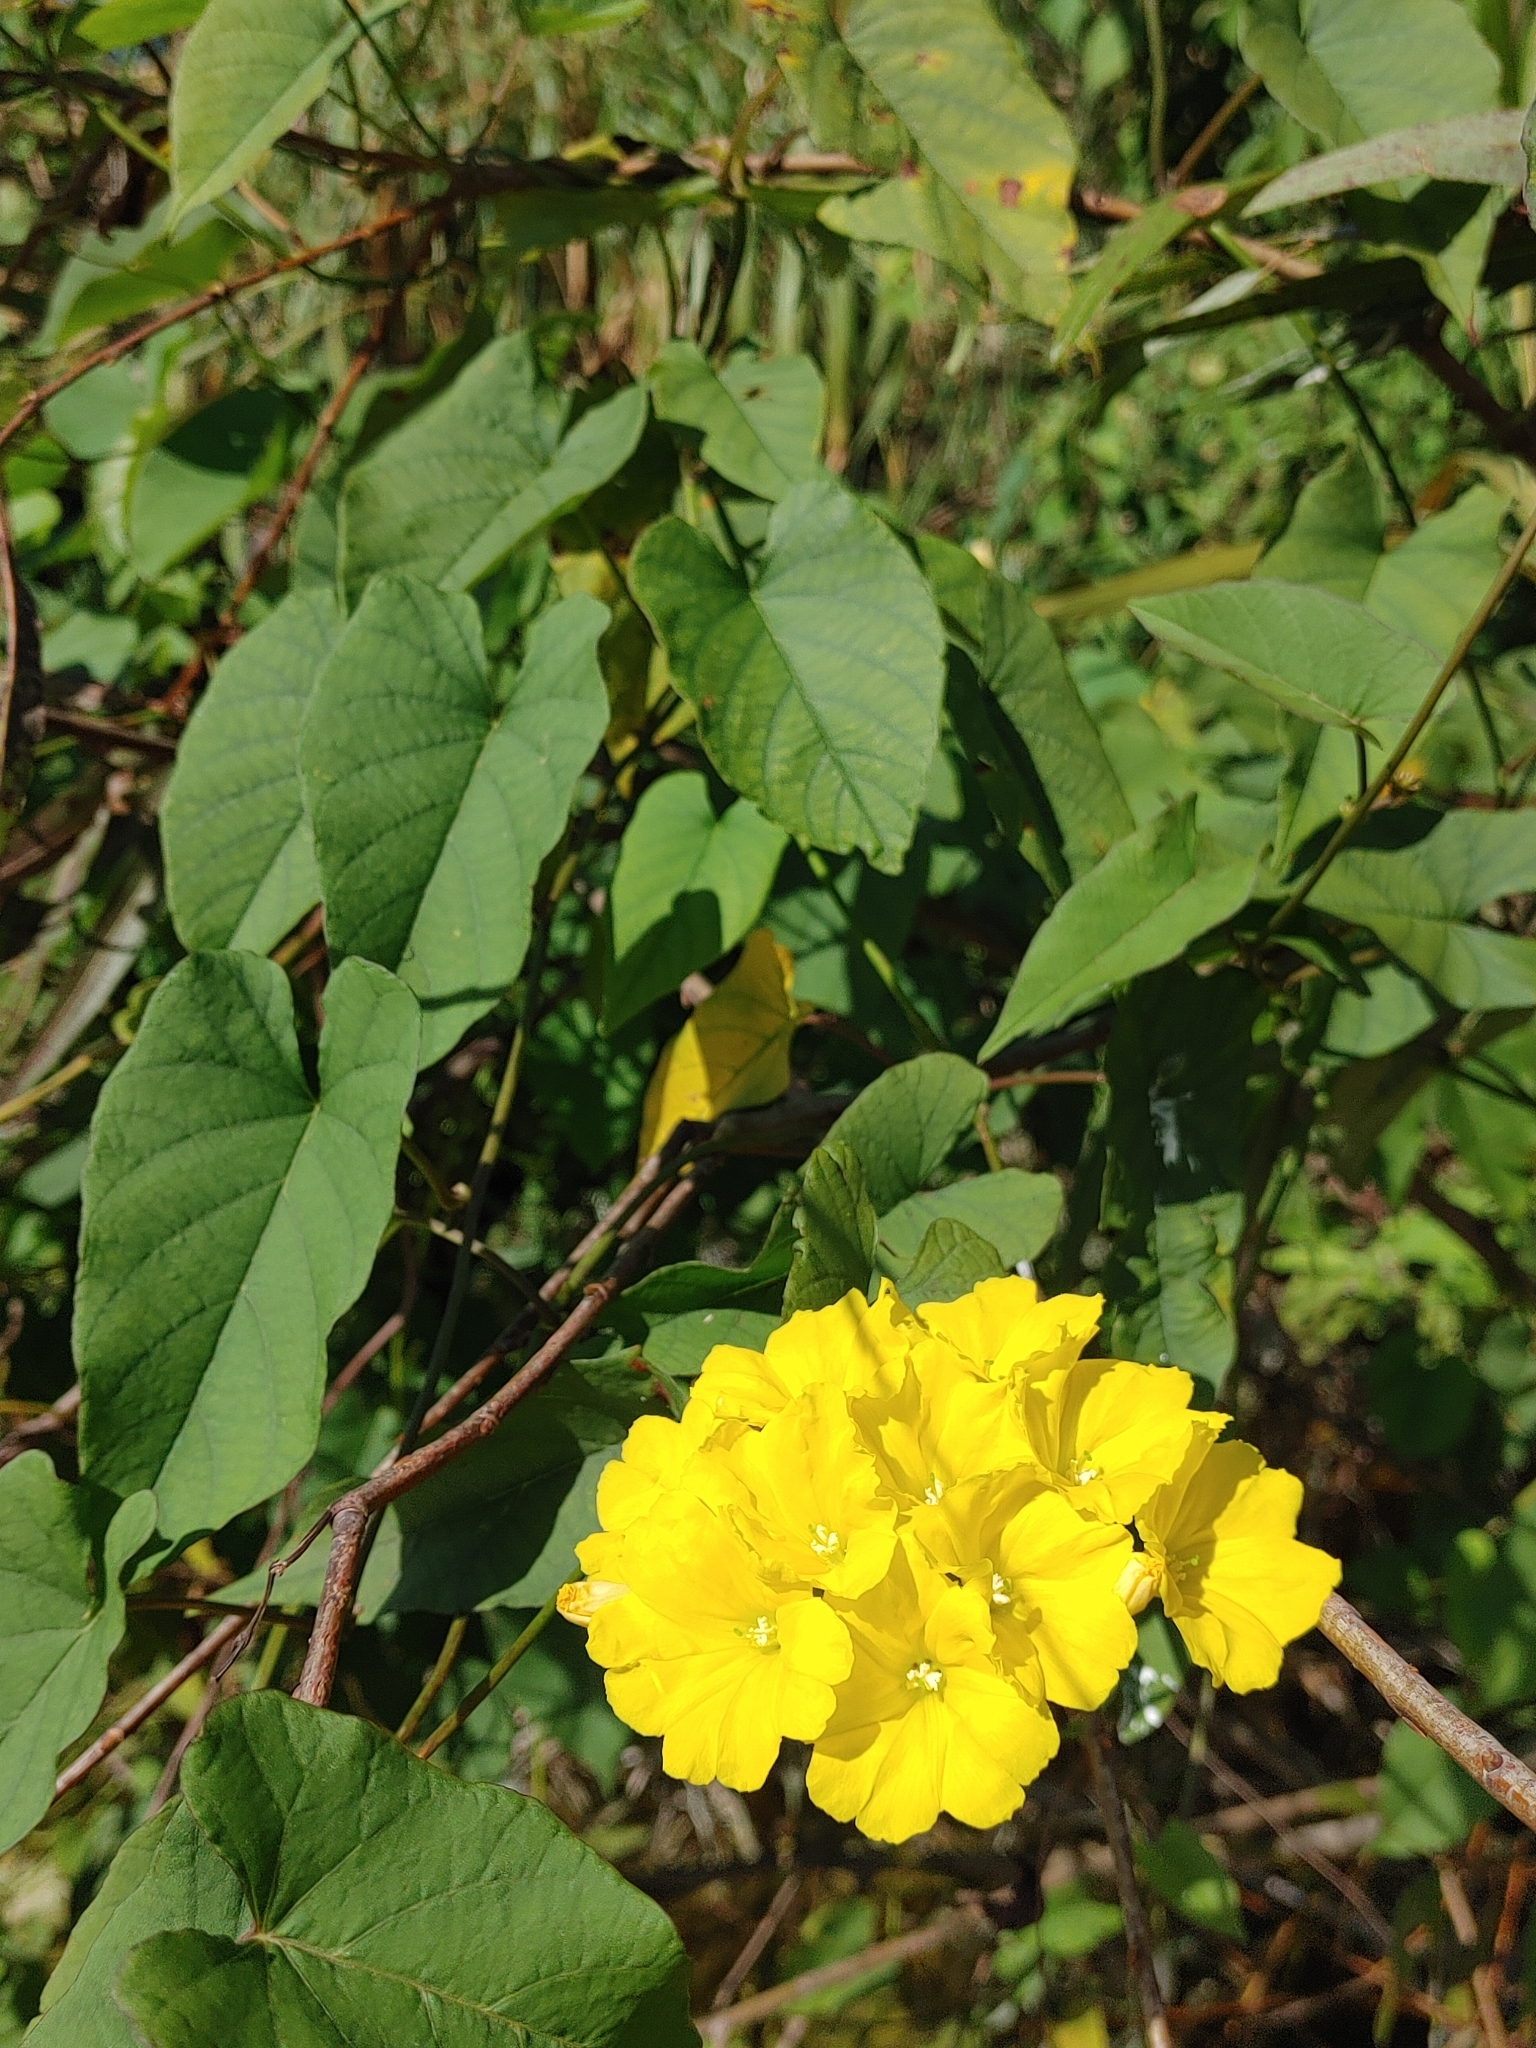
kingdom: Plantae
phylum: Tracheophyta
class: Magnoliopsida
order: Solanales
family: Convolvulaceae
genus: Camonea
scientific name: Camonea umbellata
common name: Hogvine
